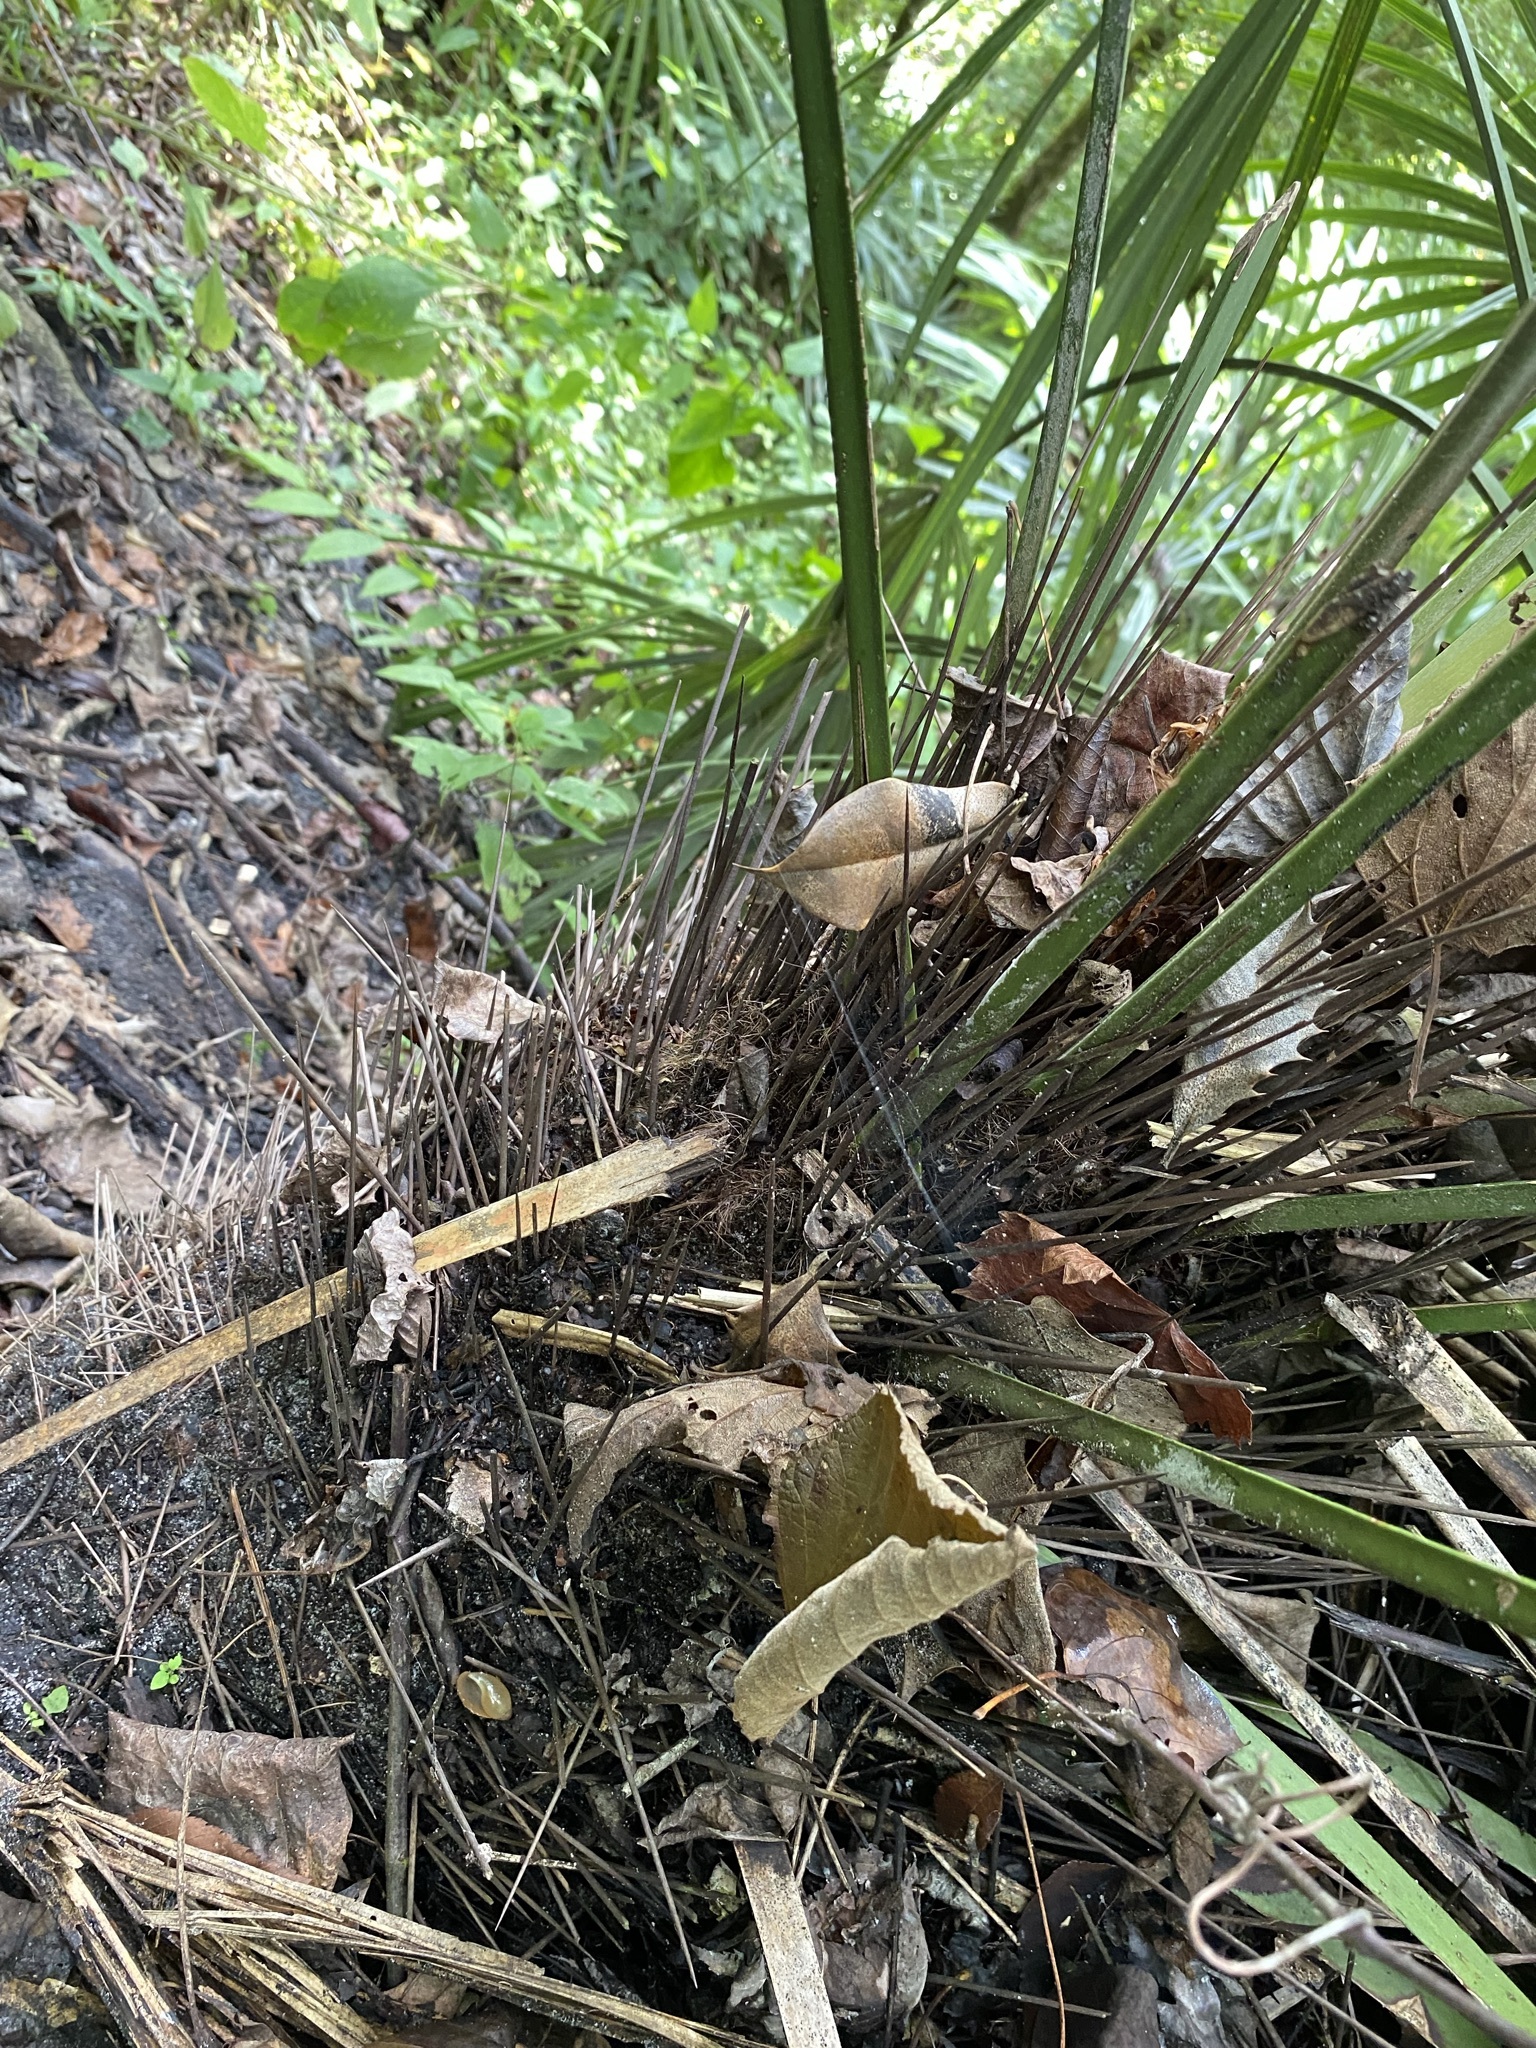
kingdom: Plantae
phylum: Tracheophyta
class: Liliopsida
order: Arecales
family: Arecaceae
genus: Rhapidophyllum
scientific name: Rhapidophyllum hystrix
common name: Porcupine palm
